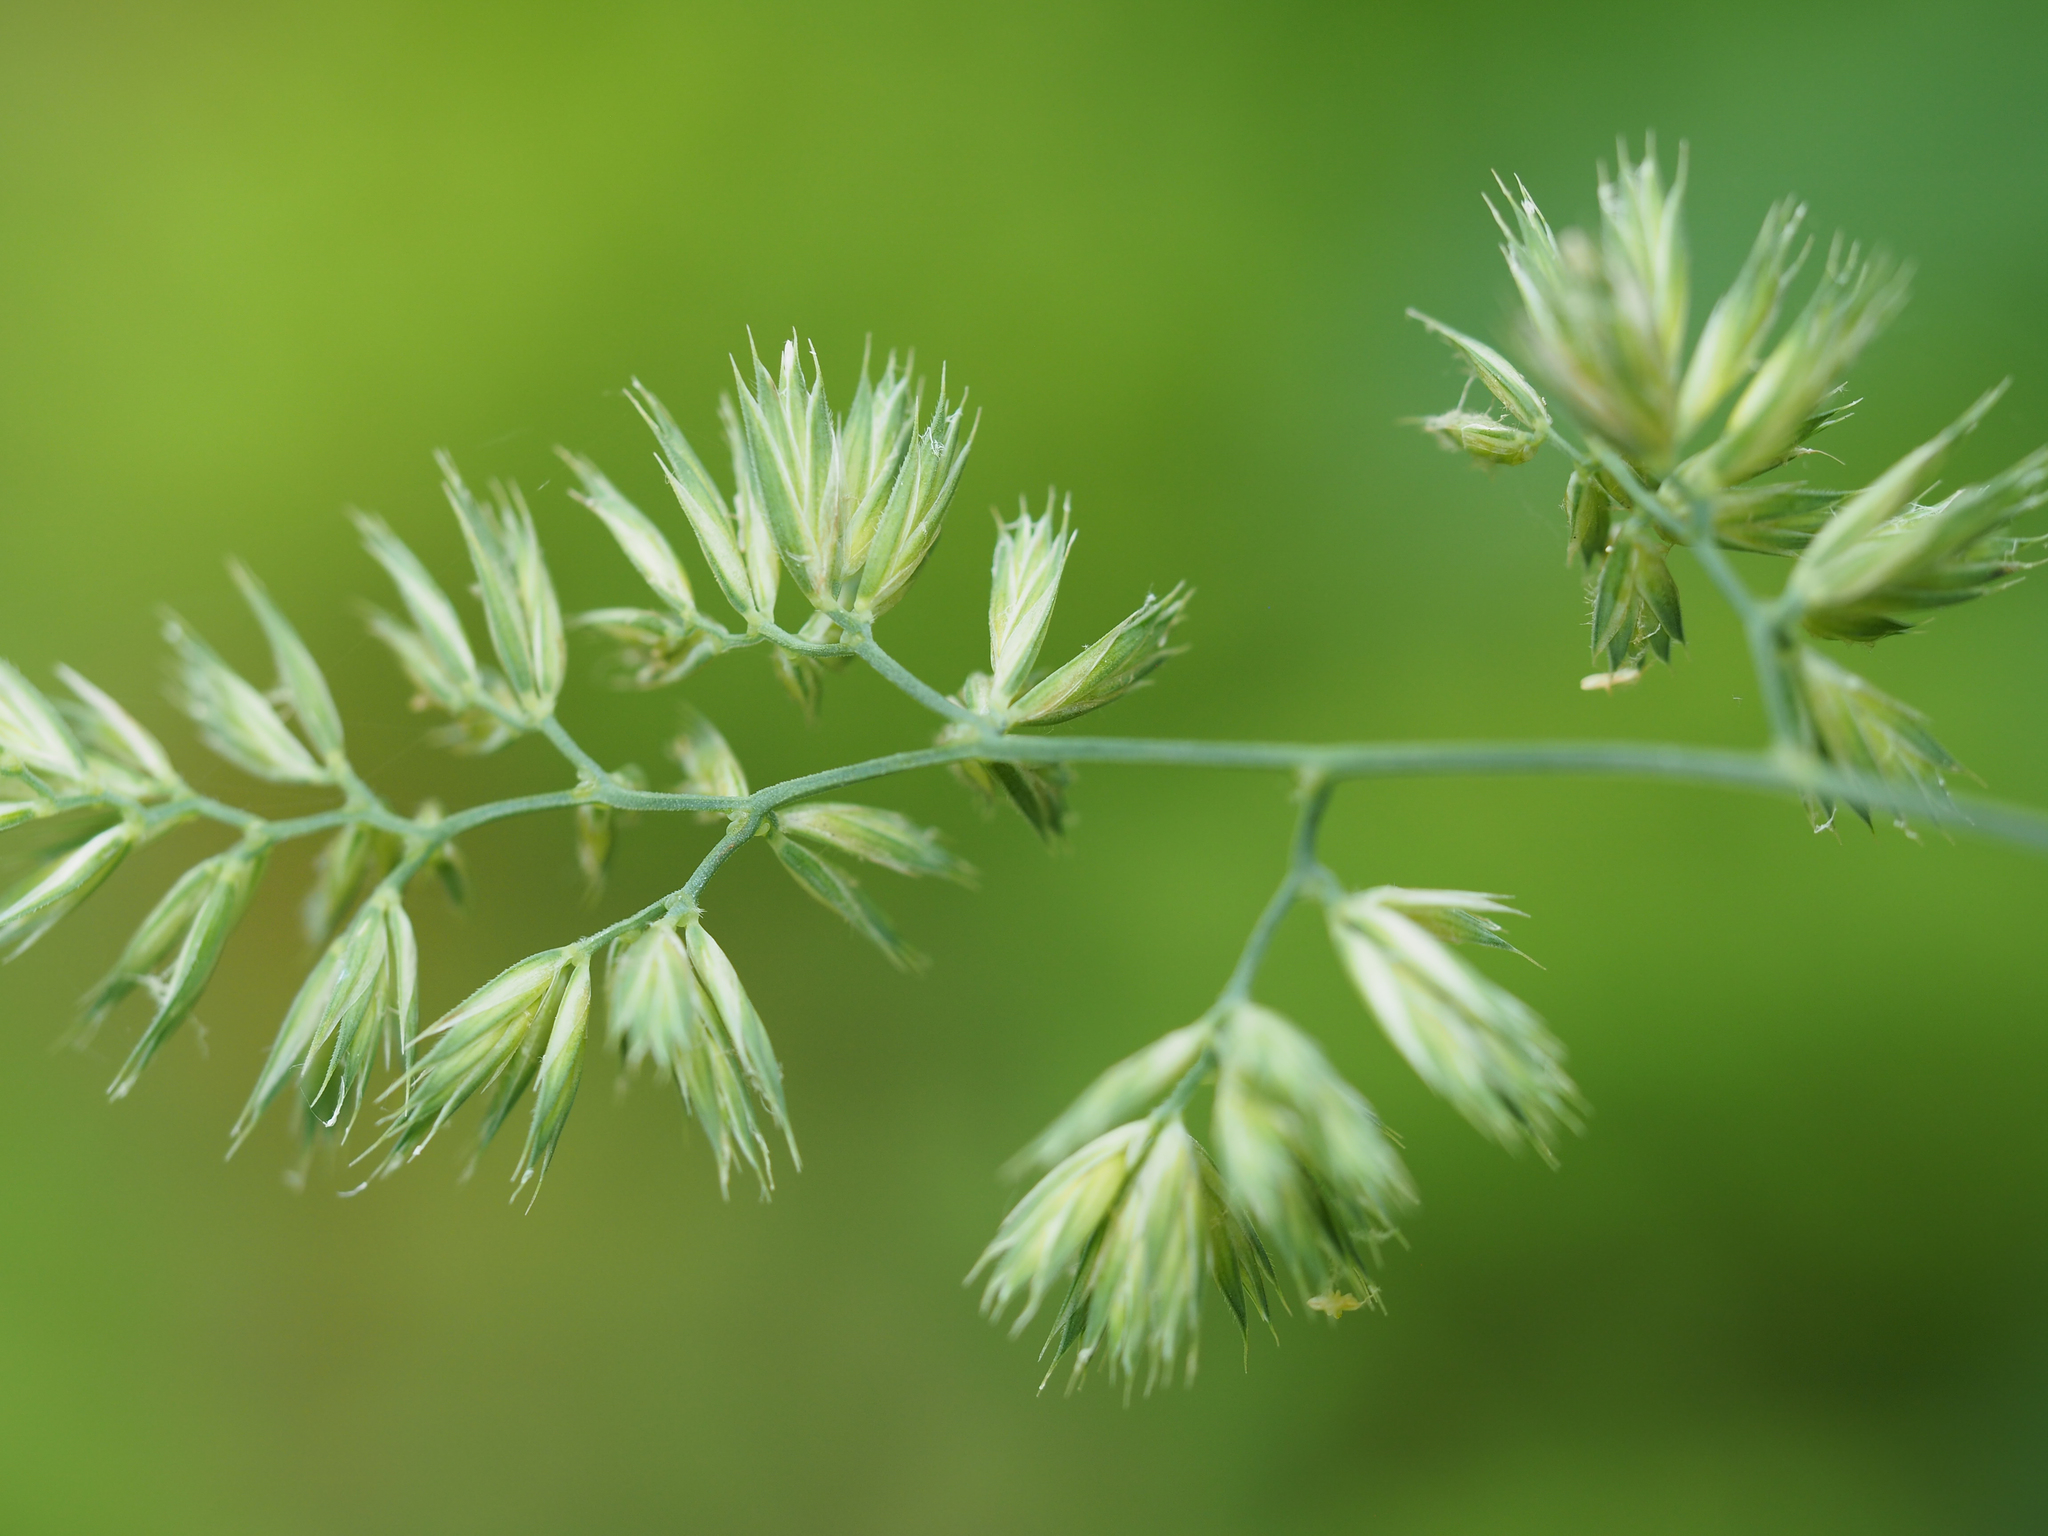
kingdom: Plantae
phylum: Tracheophyta
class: Liliopsida
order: Poales
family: Poaceae
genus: Dactylis
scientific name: Dactylis glomerata
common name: Orchardgrass
